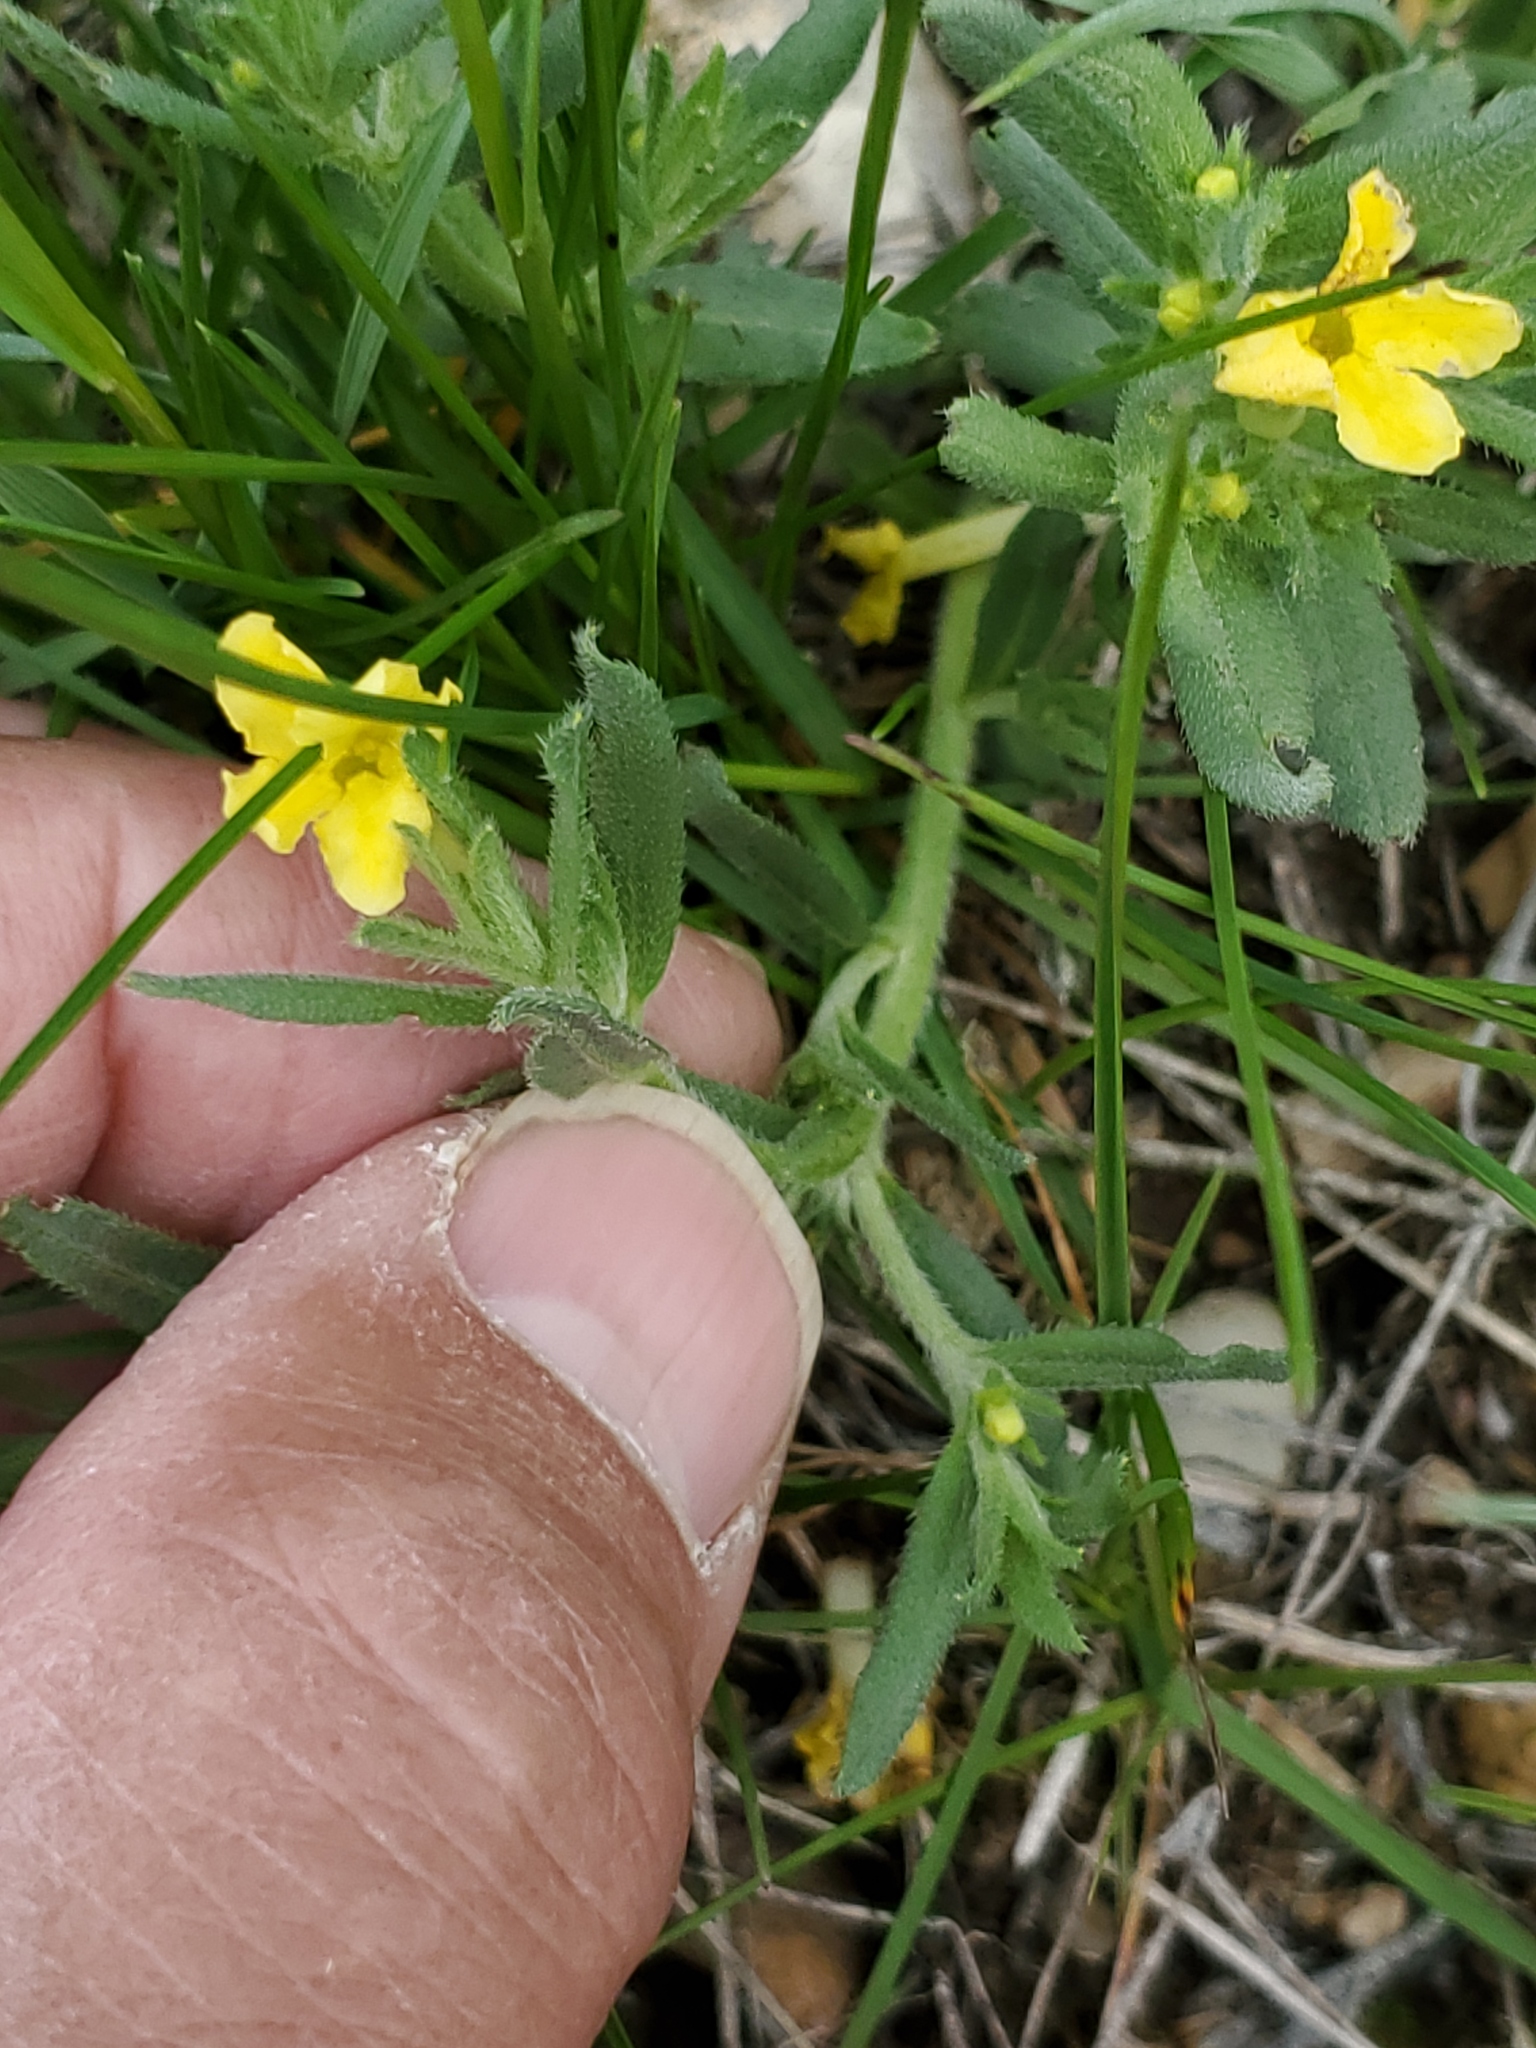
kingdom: Plantae
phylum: Tracheophyta
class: Magnoliopsida
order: Boraginales
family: Boraginaceae
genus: Lithospermum
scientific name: Lithospermum incisum
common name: Fringed gromwell
